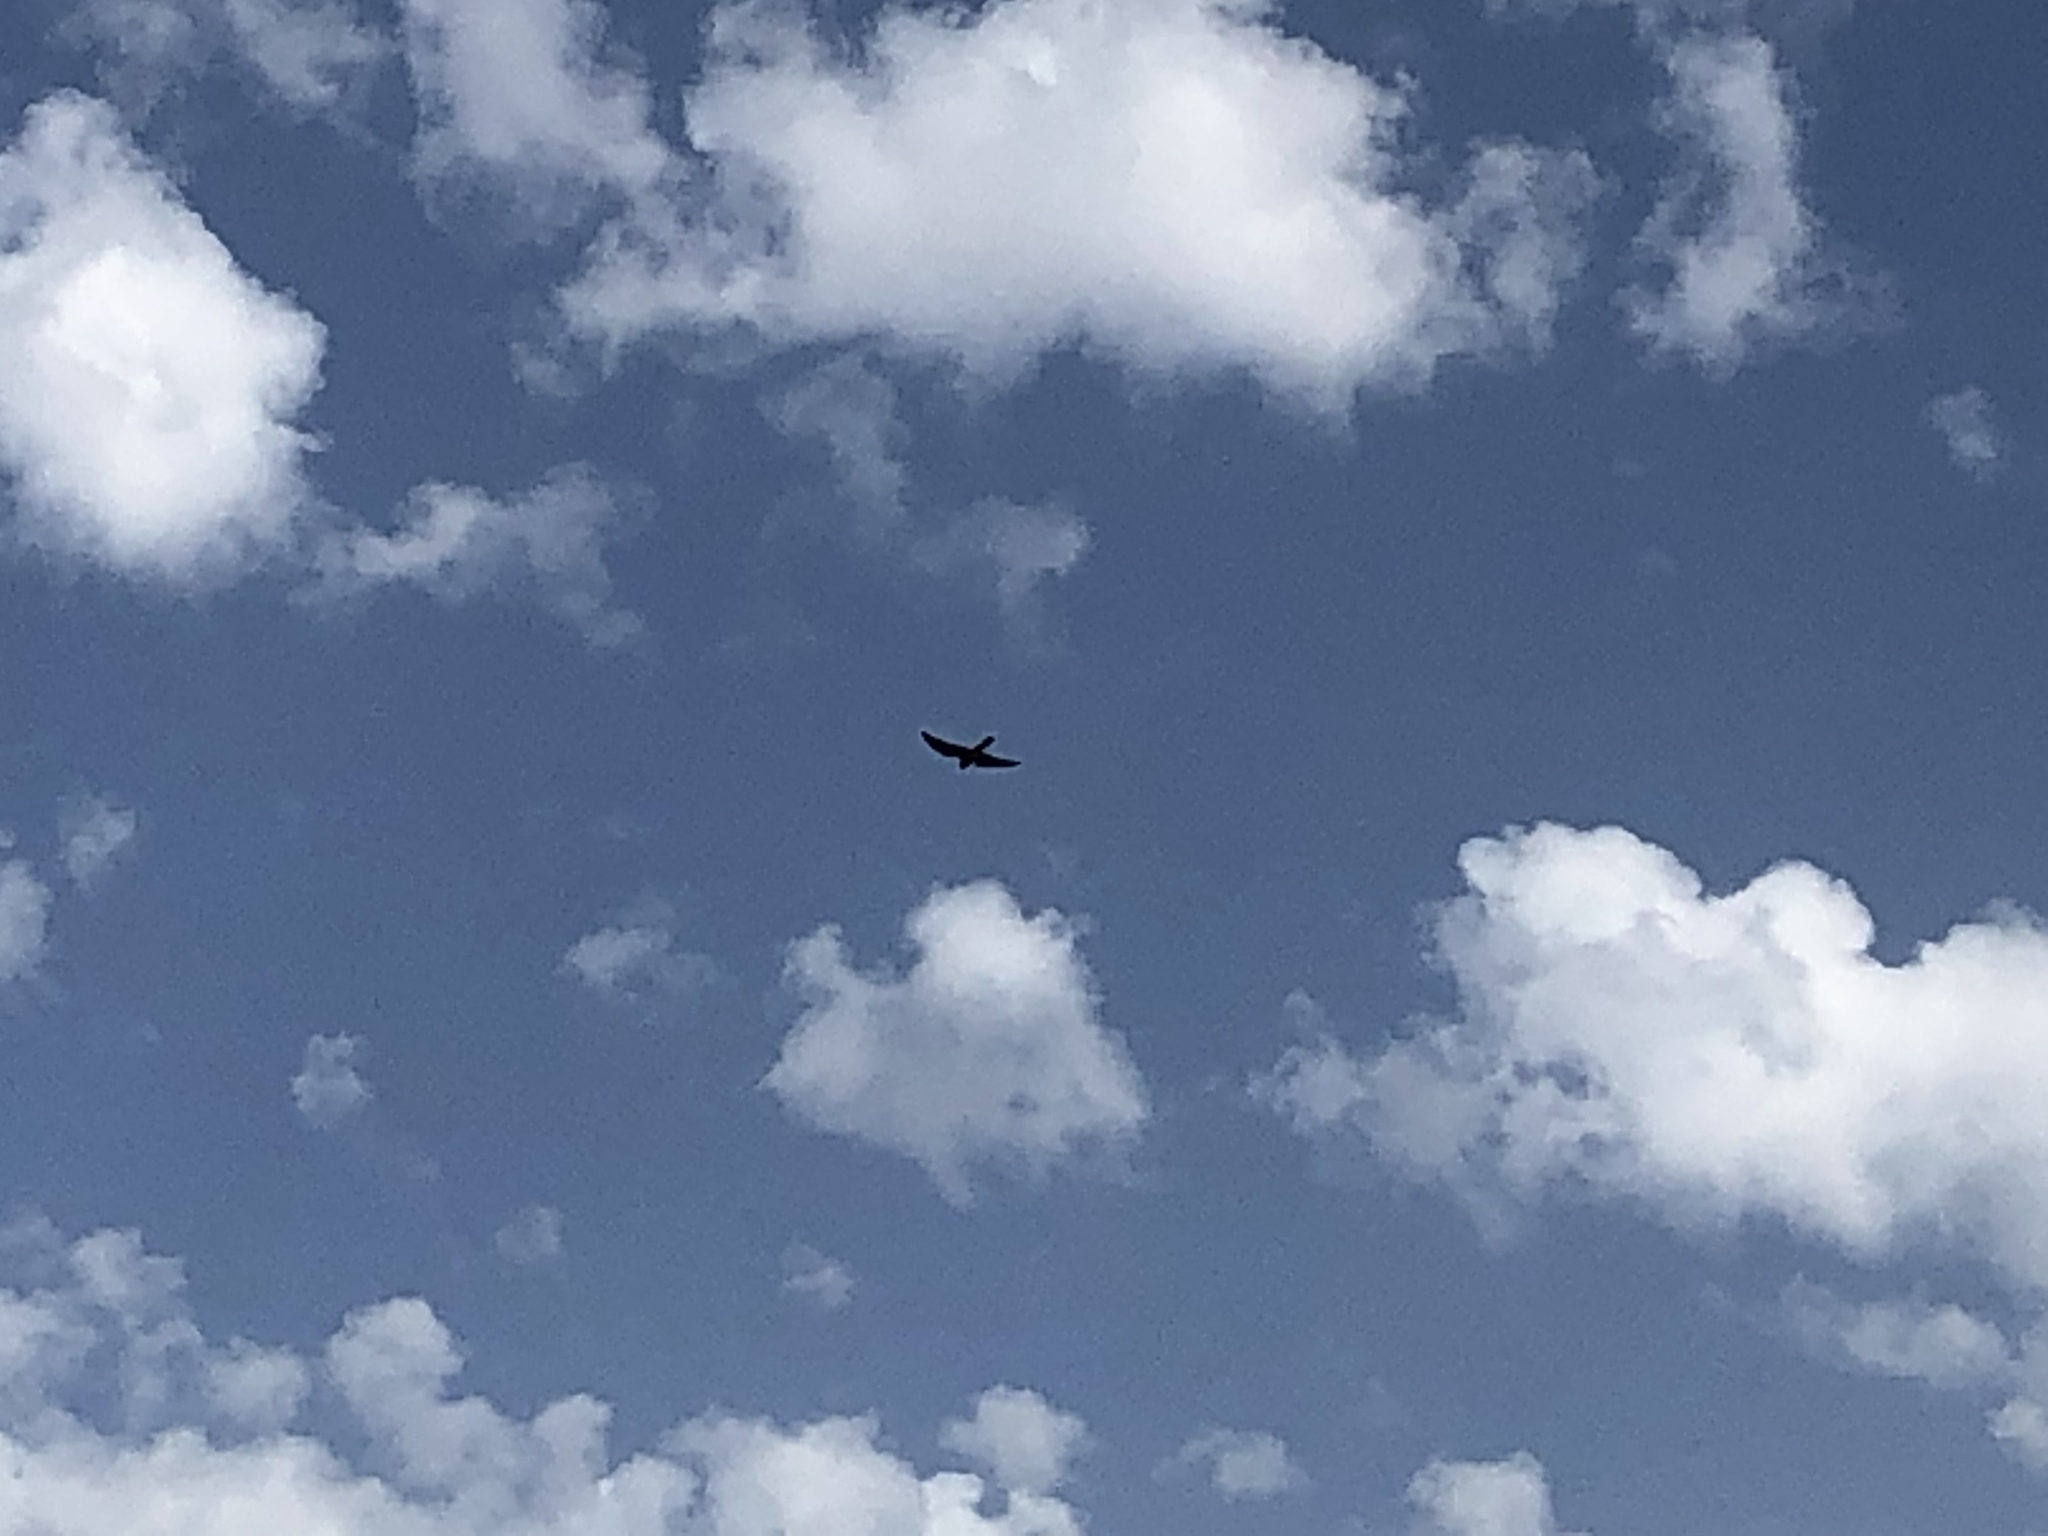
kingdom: Animalia
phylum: Chordata
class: Aves
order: Falconiformes
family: Falconidae
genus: Falco
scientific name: Falco eleonorae
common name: Eleonora's falcon
